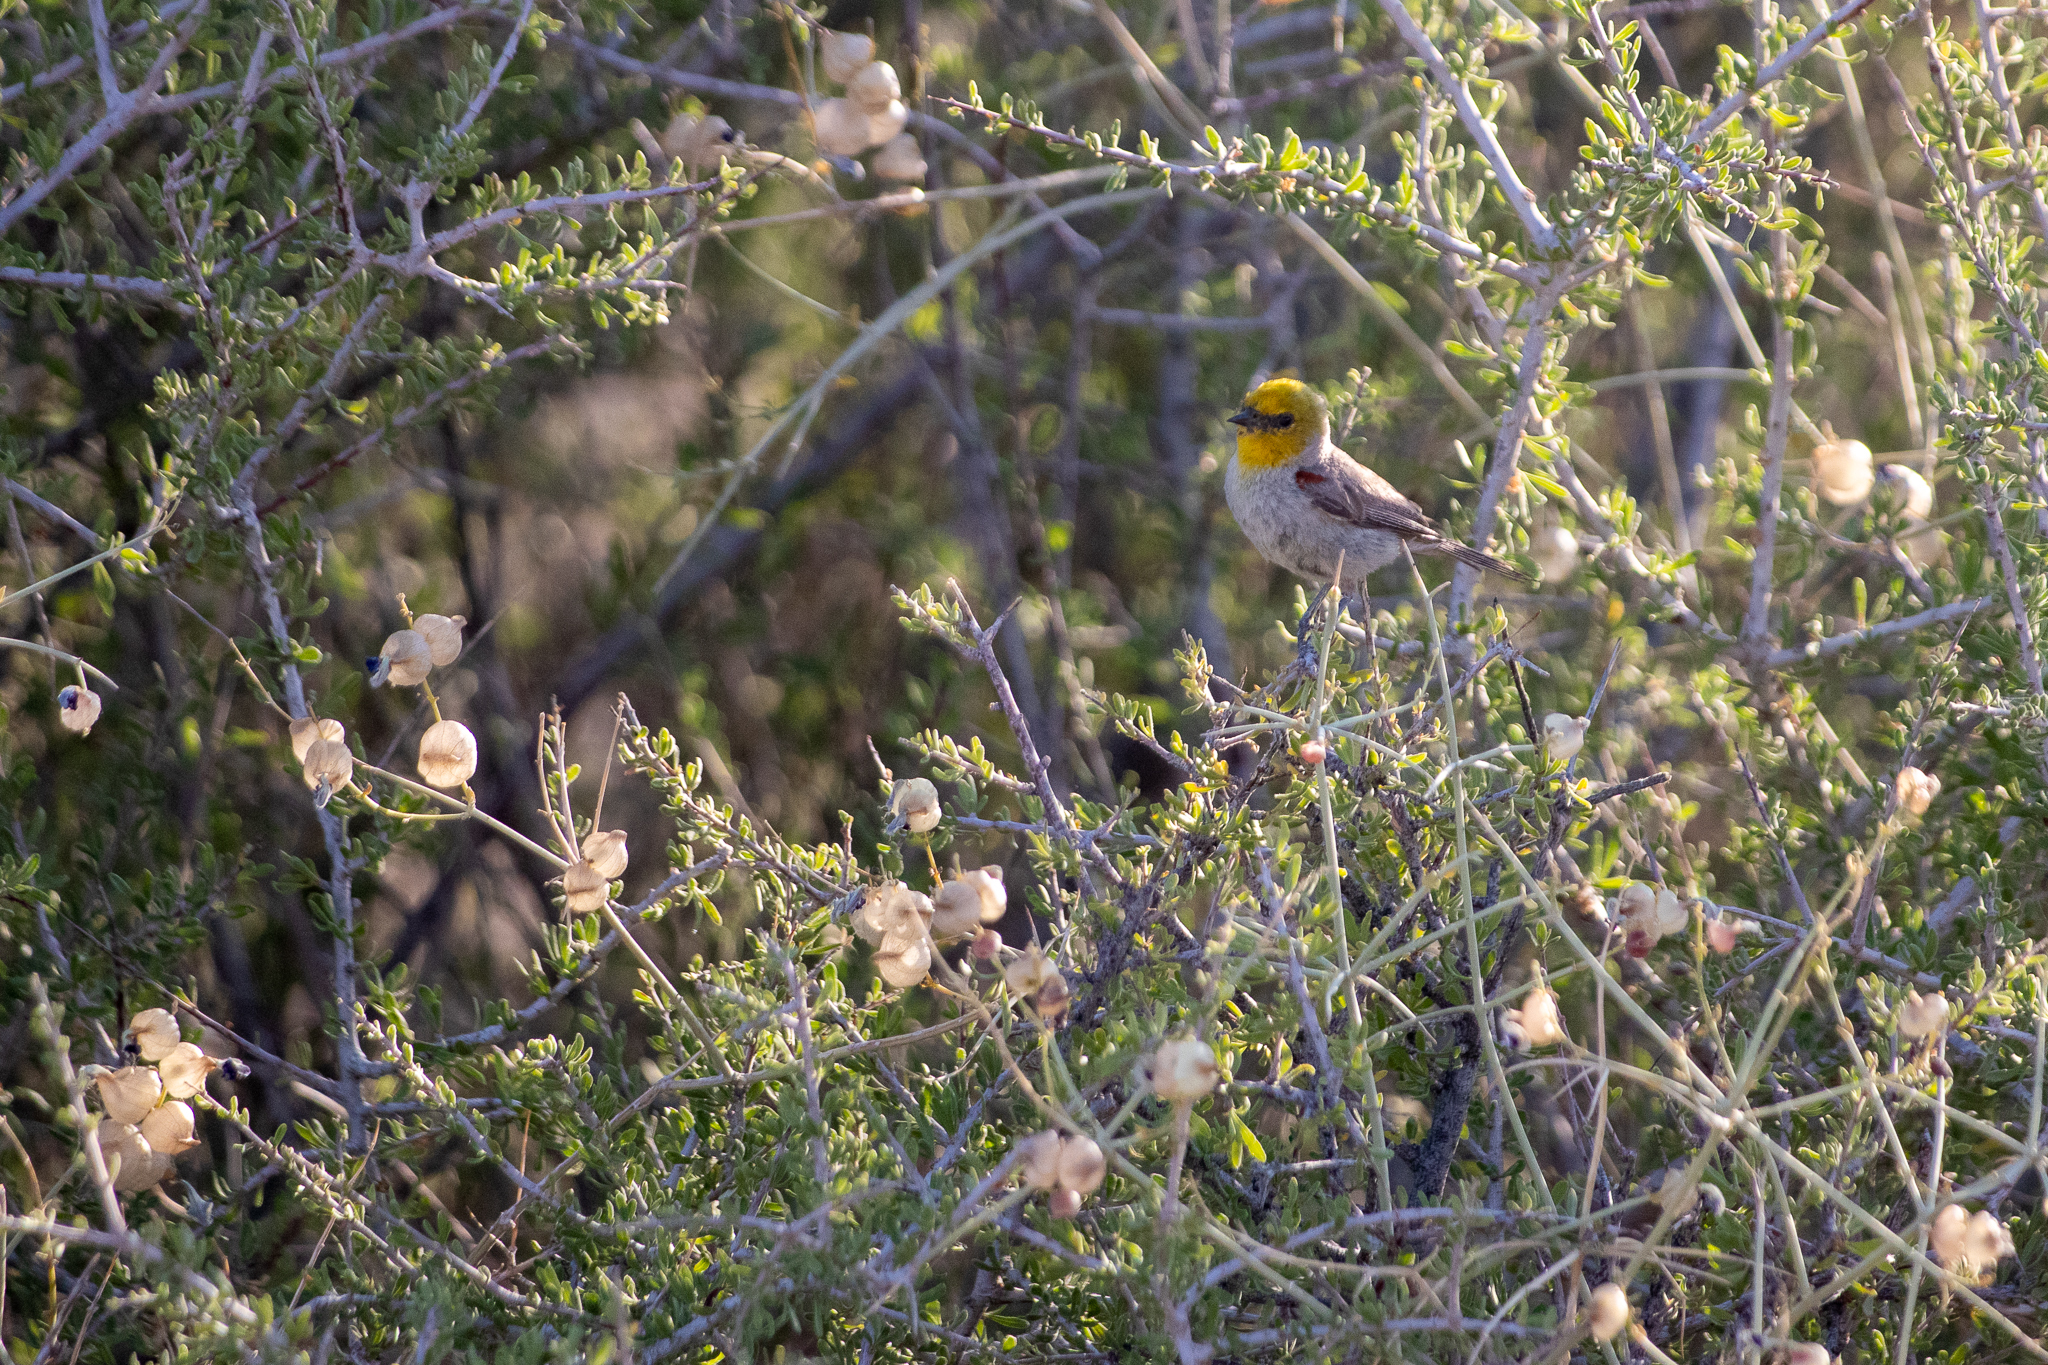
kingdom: Animalia
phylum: Chordata
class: Aves
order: Passeriformes
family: Remizidae
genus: Auriparus
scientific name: Auriparus flaviceps
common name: Verdin
